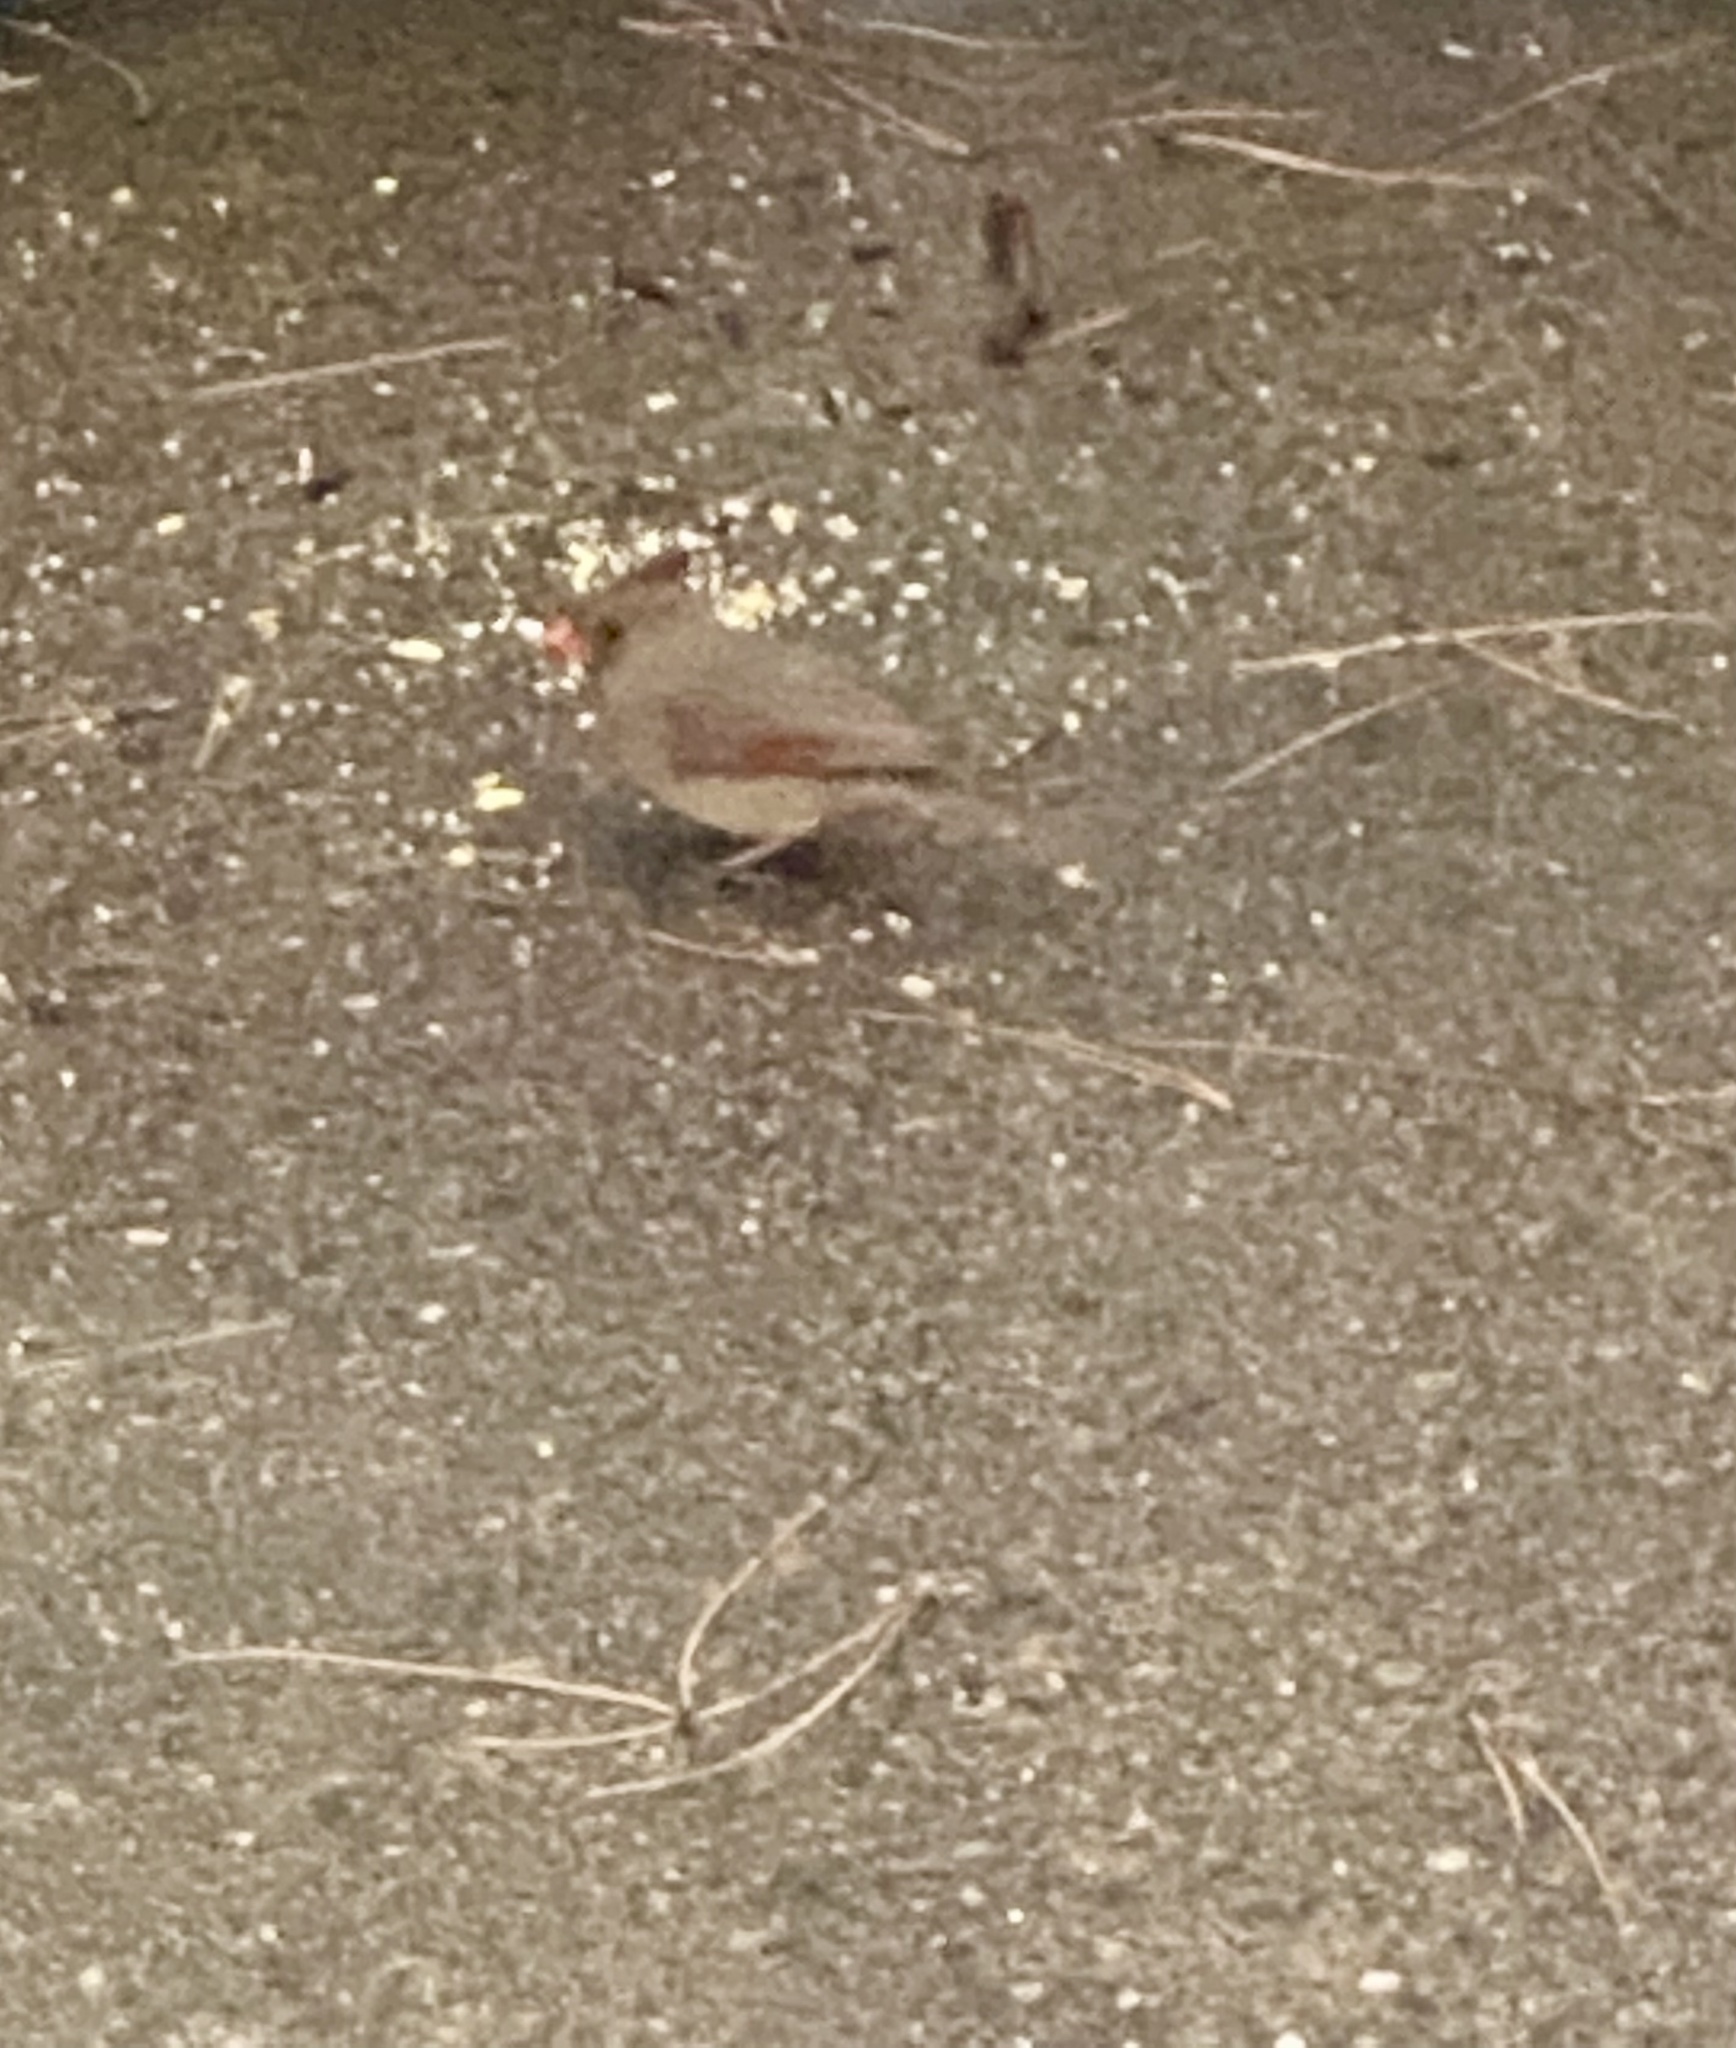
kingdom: Animalia
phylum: Chordata
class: Aves
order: Passeriformes
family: Cardinalidae
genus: Cardinalis
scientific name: Cardinalis cardinalis
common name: Northern cardinal
